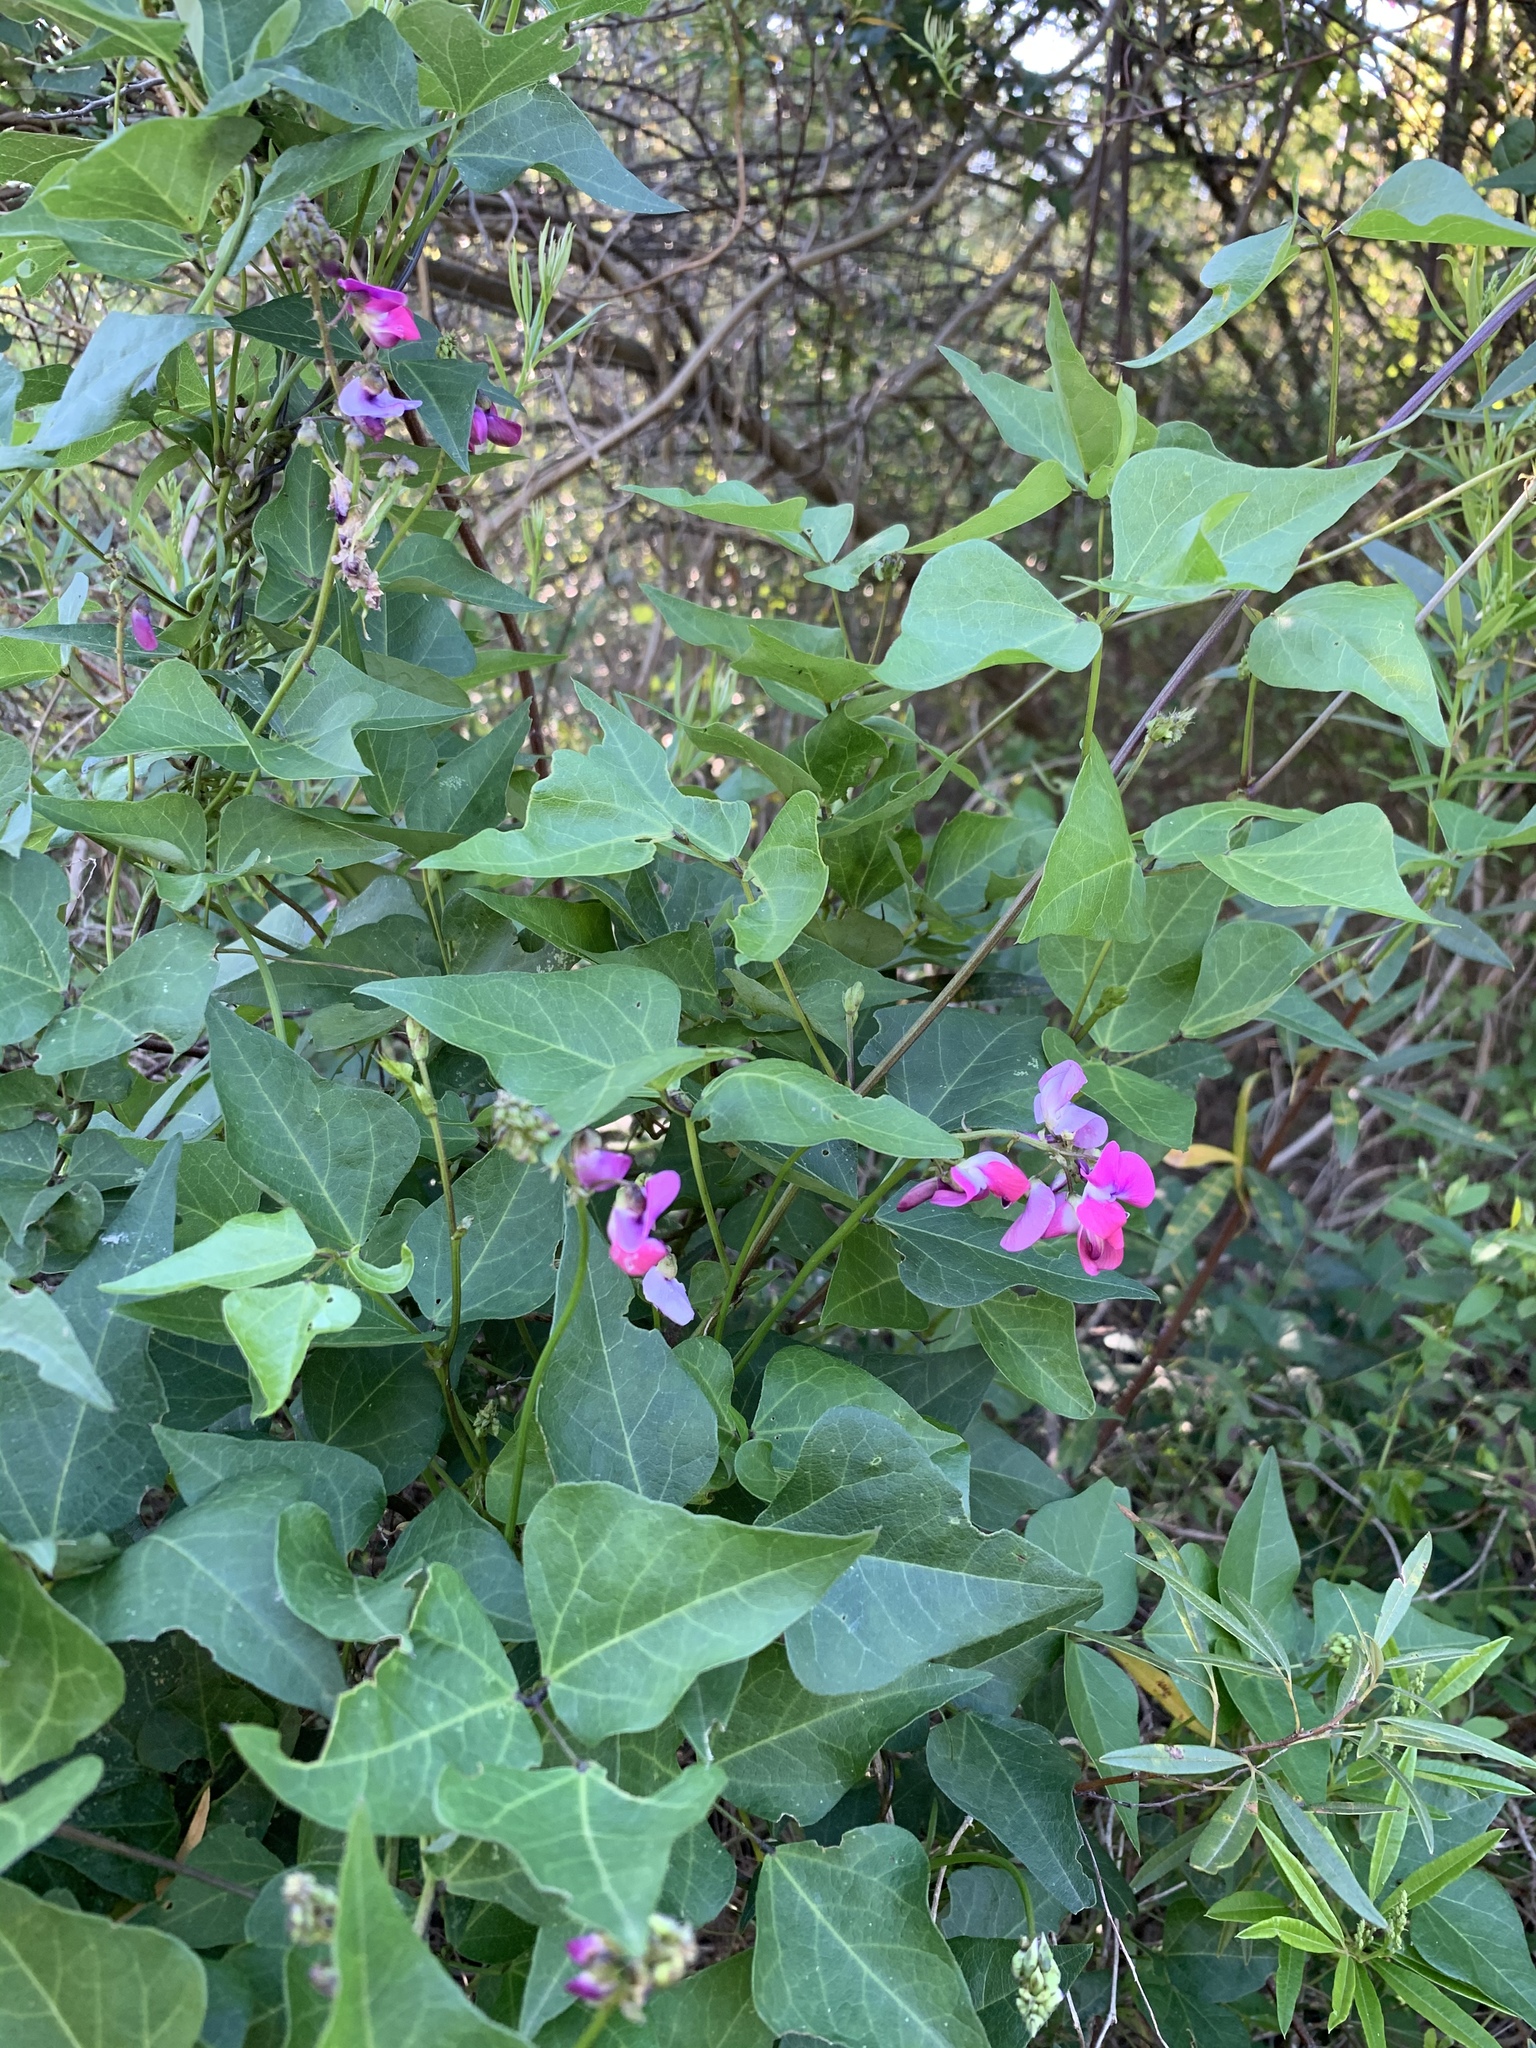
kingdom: Plantae
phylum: Tracheophyta
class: Magnoliopsida
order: Fabales
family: Fabaceae
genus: Dipogon
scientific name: Dipogon lignosus
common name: Okie bean
